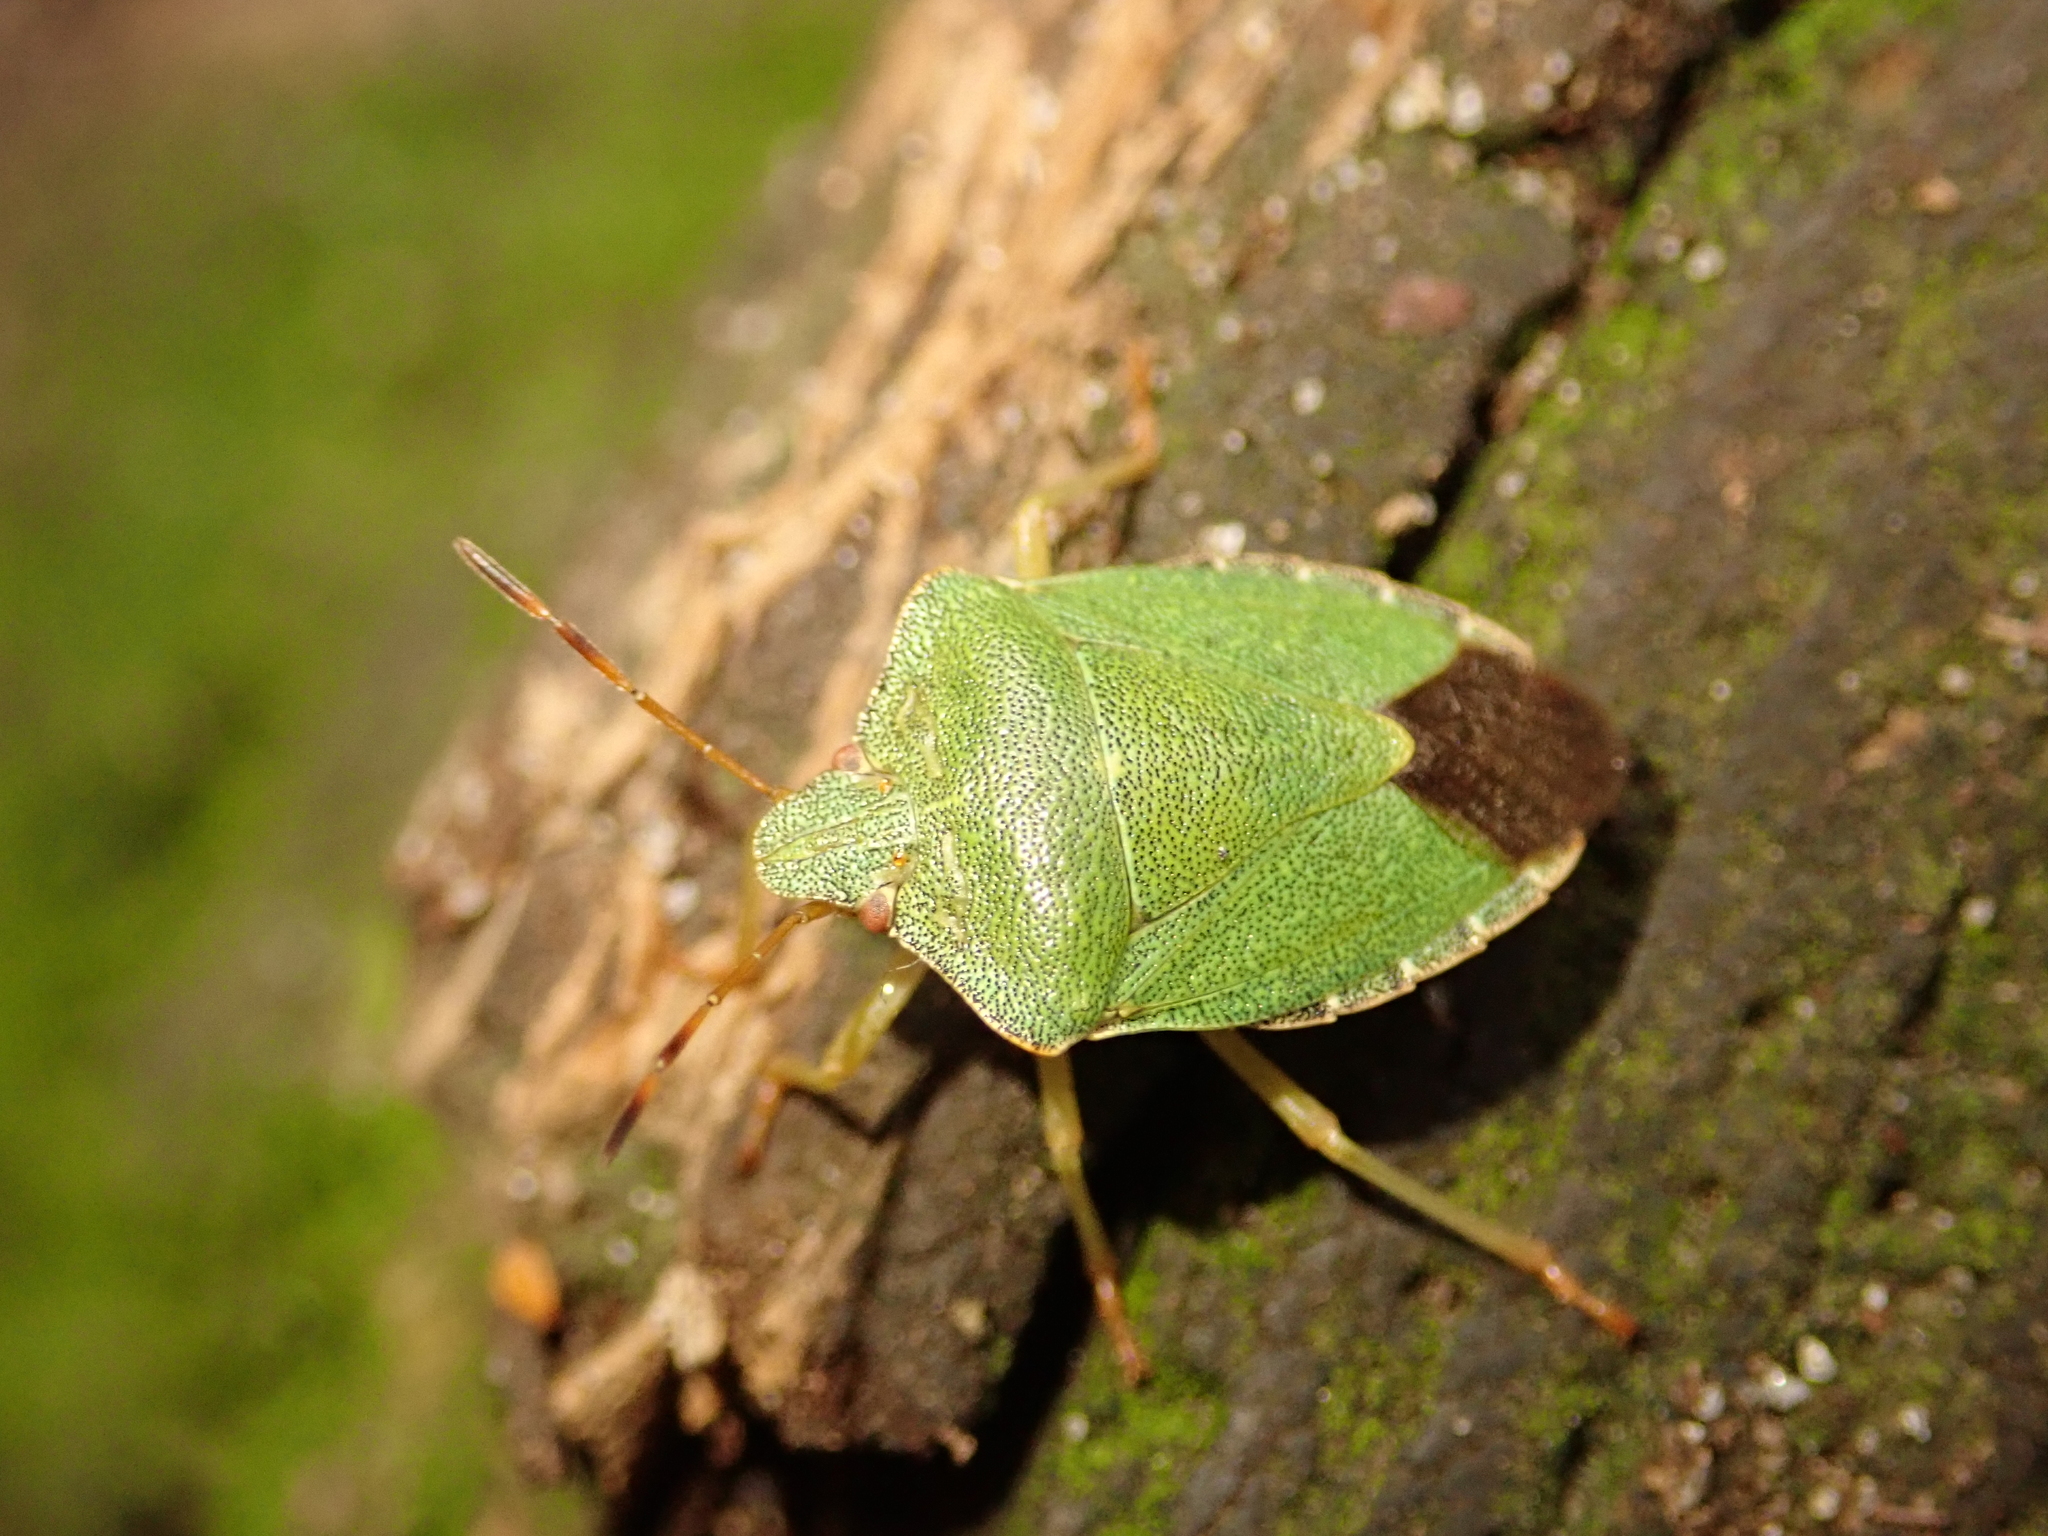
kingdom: Animalia
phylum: Arthropoda
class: Insecta
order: Hemiptera
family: Pentatomidae
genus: Palomena
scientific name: Palomena prasina
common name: Green shieldbug
